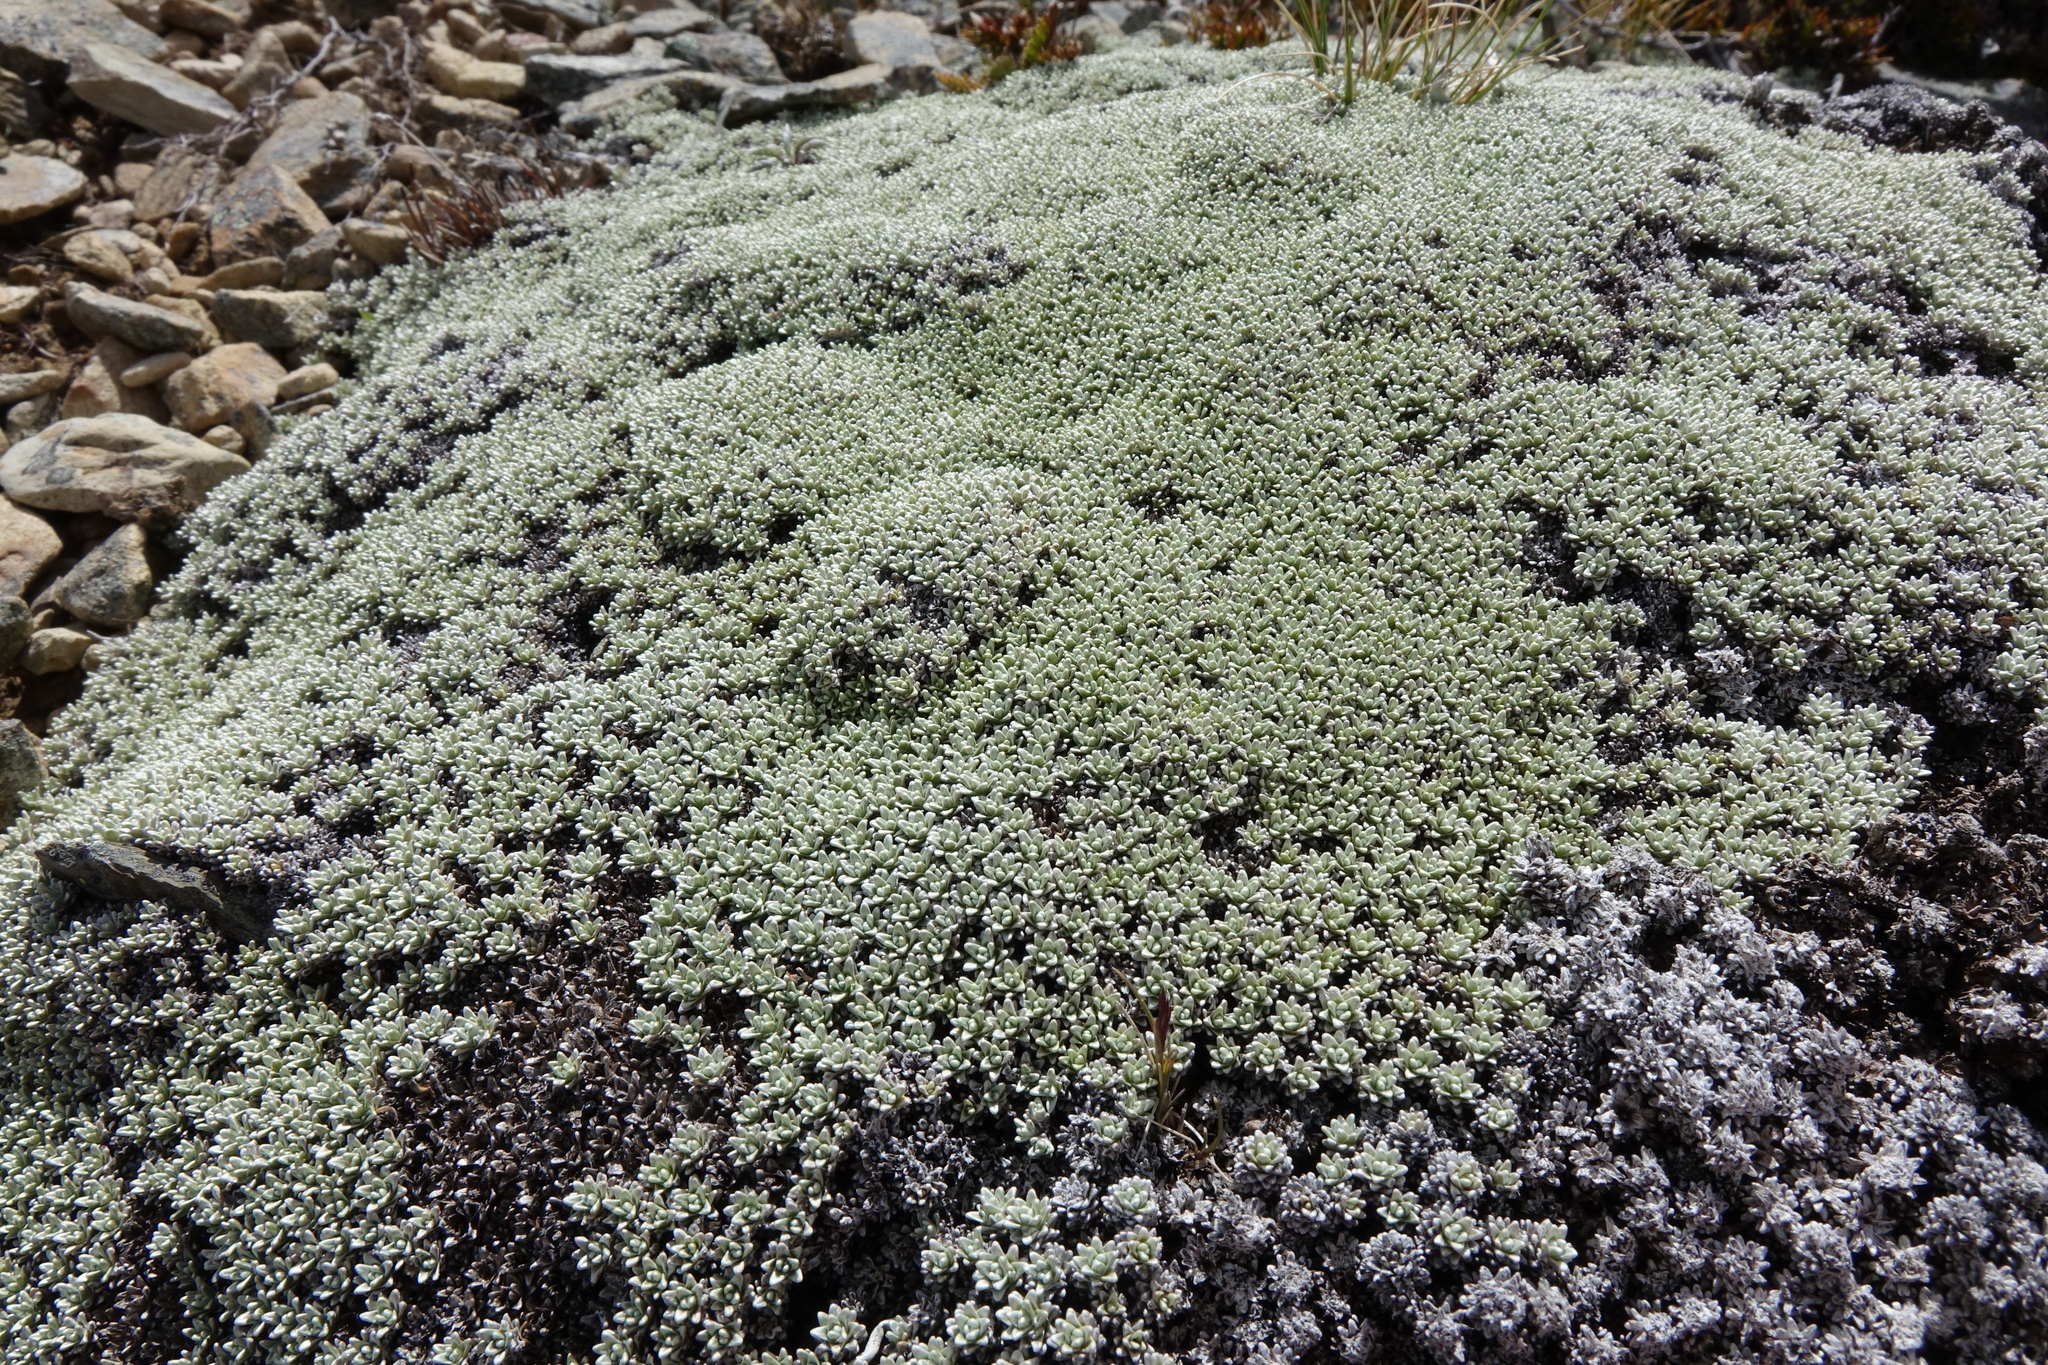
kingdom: Plantae
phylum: Tracheophyta
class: Magnoliopsida
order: Asterales
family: Asteraceae
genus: Raoulia
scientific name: Raoulia hectorii
